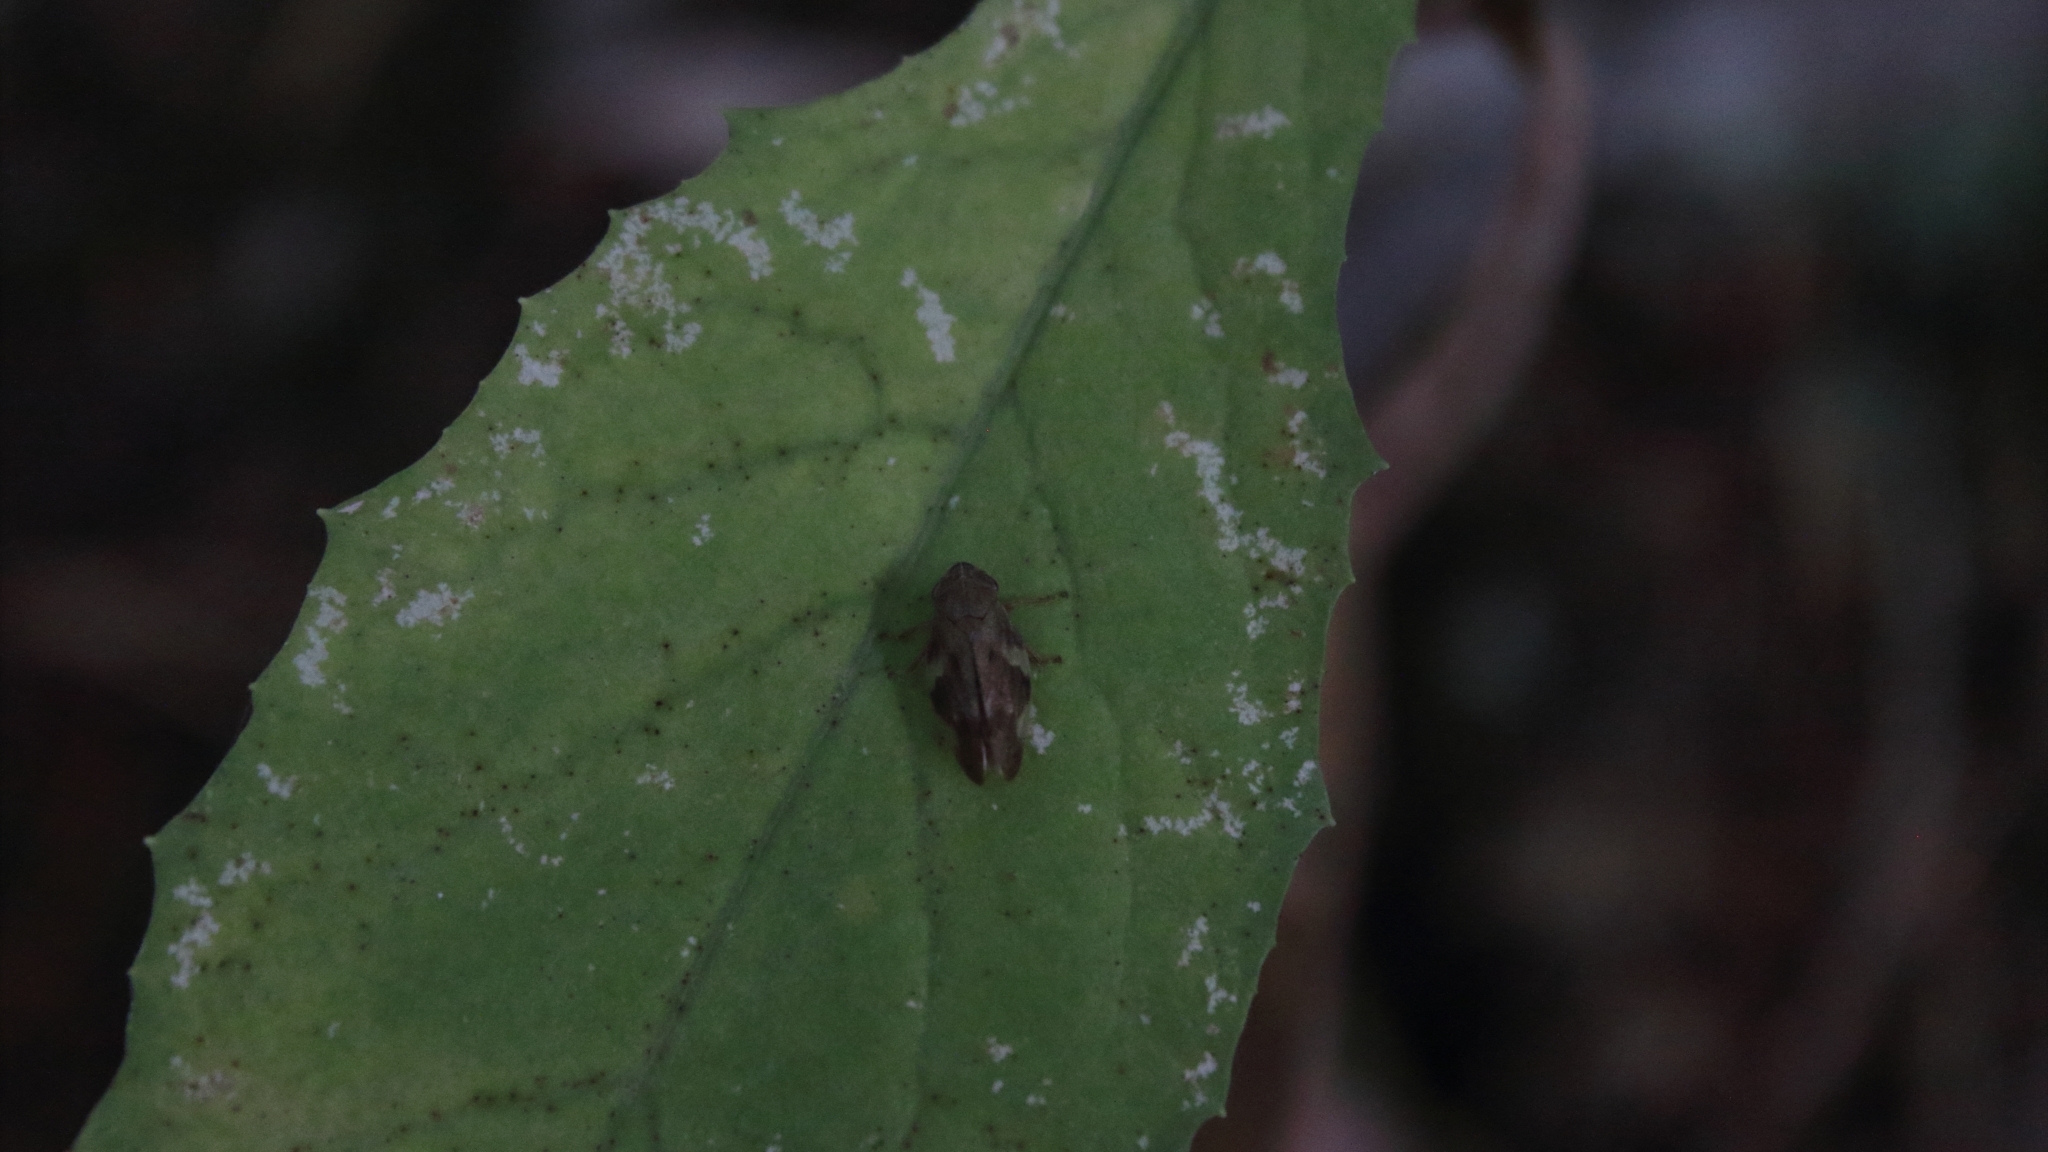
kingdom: Animalia
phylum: Arthropoda
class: Insecta
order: Hemiptera
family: Aphrophoridae
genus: Aphrophora
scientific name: Aphrophora alni
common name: European alder spittlebug
